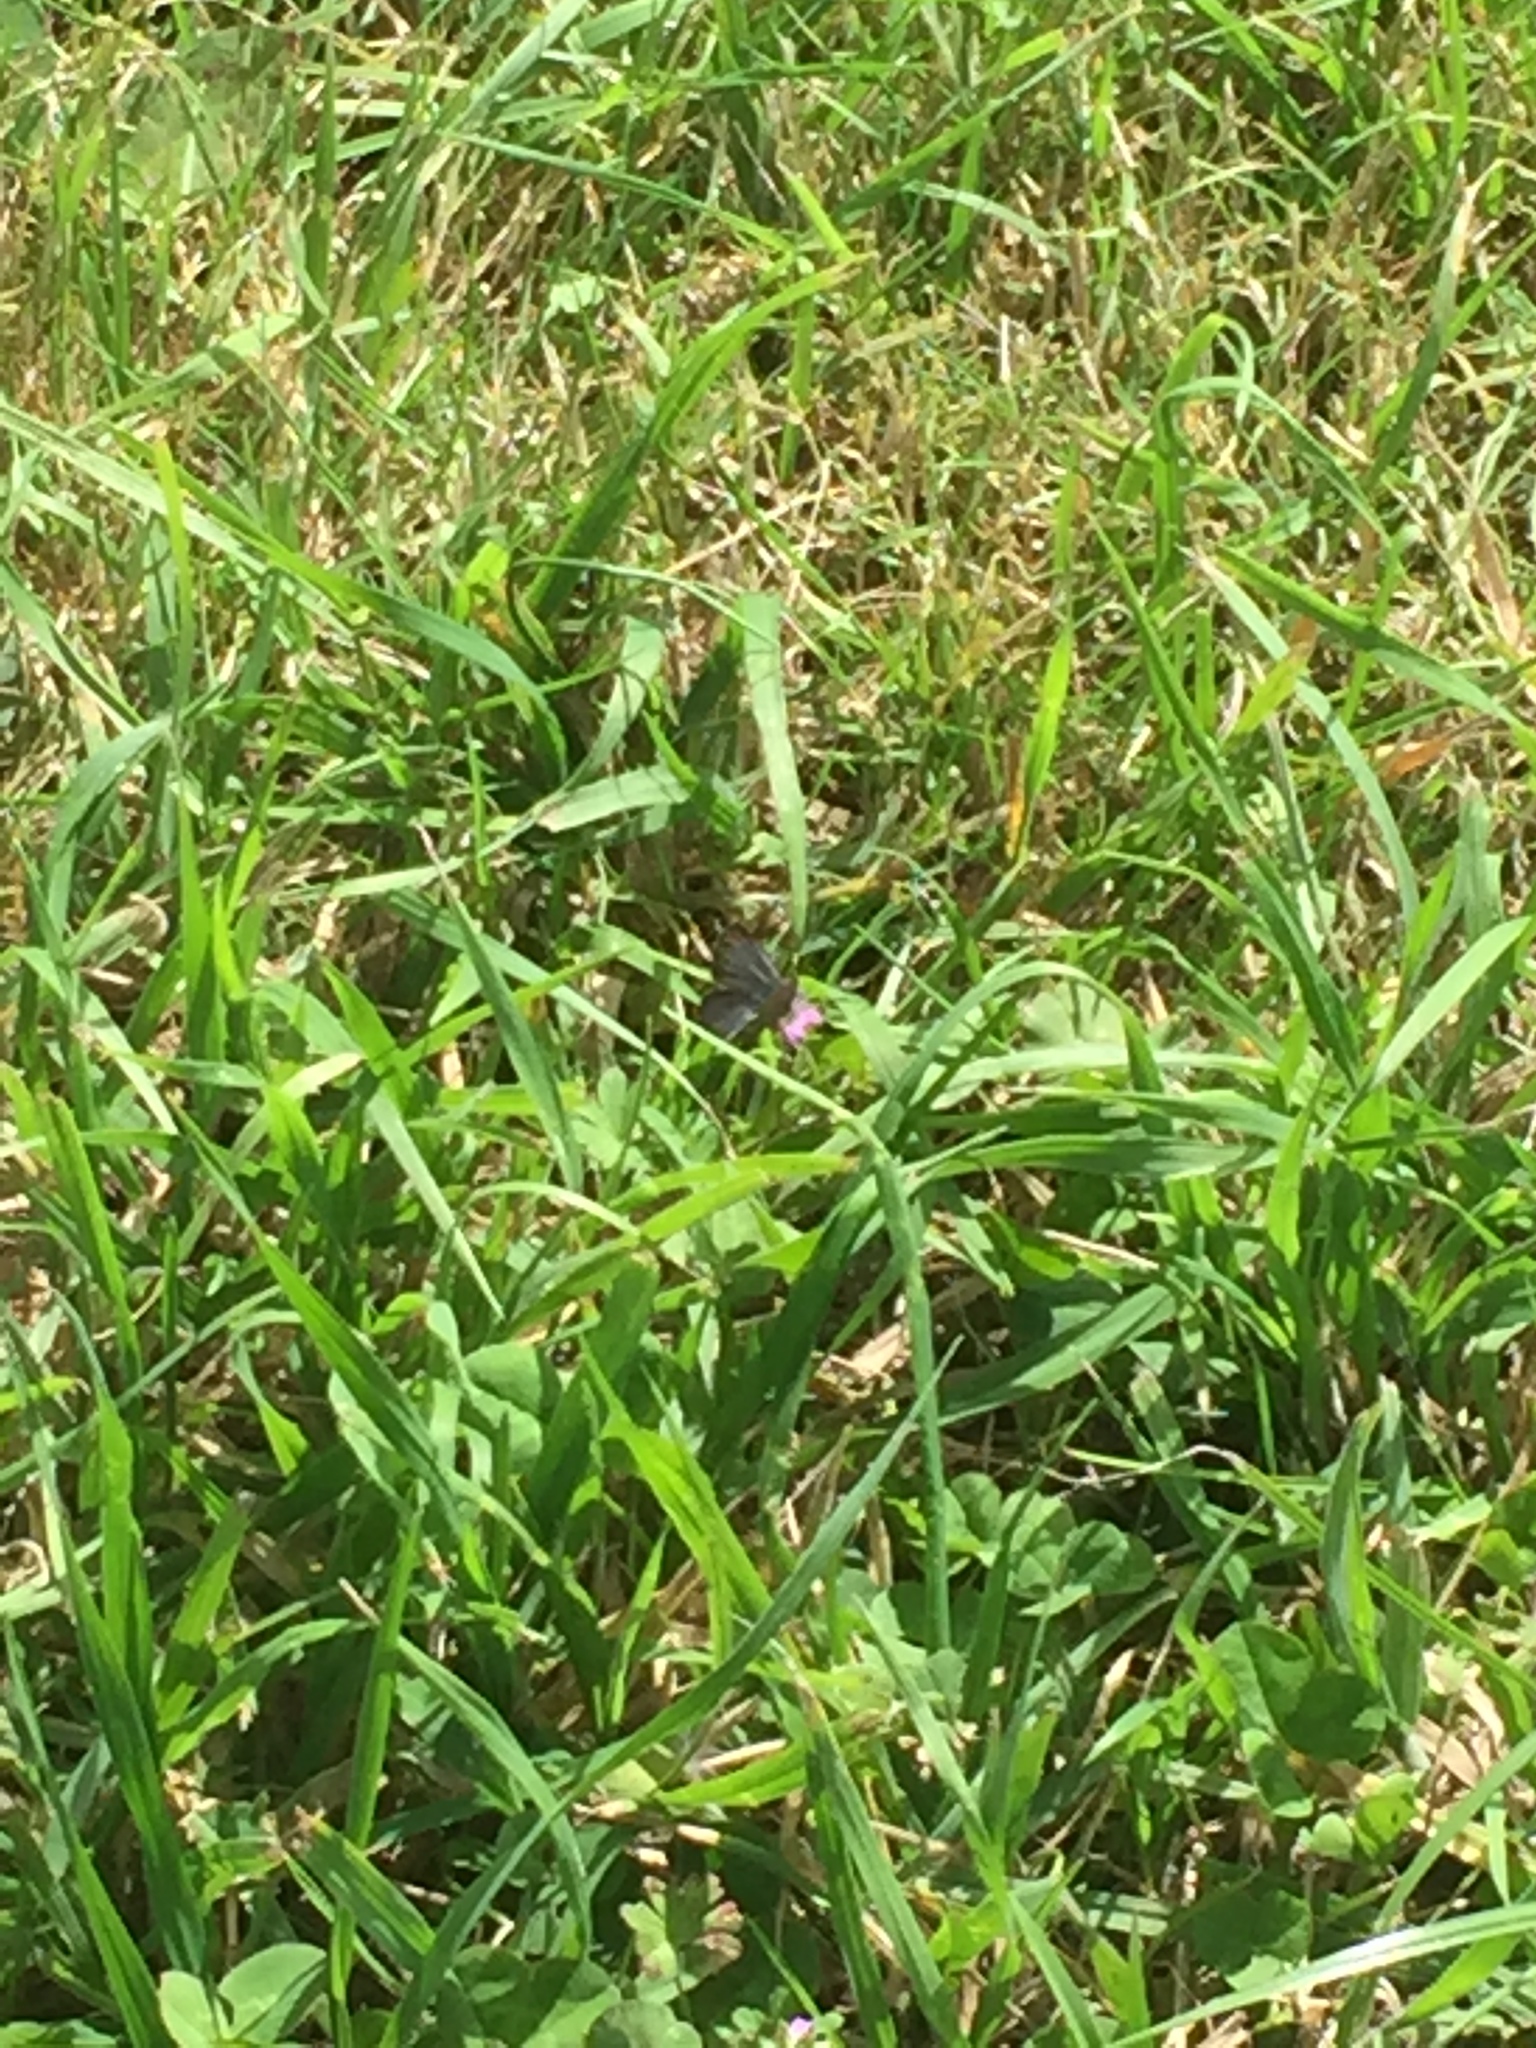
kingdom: Animalia
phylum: Arthropoda
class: Insecta
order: Lepidoptera
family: Lycaenidae
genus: Zizina
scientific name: Zizina oxleyi
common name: Southern blue
